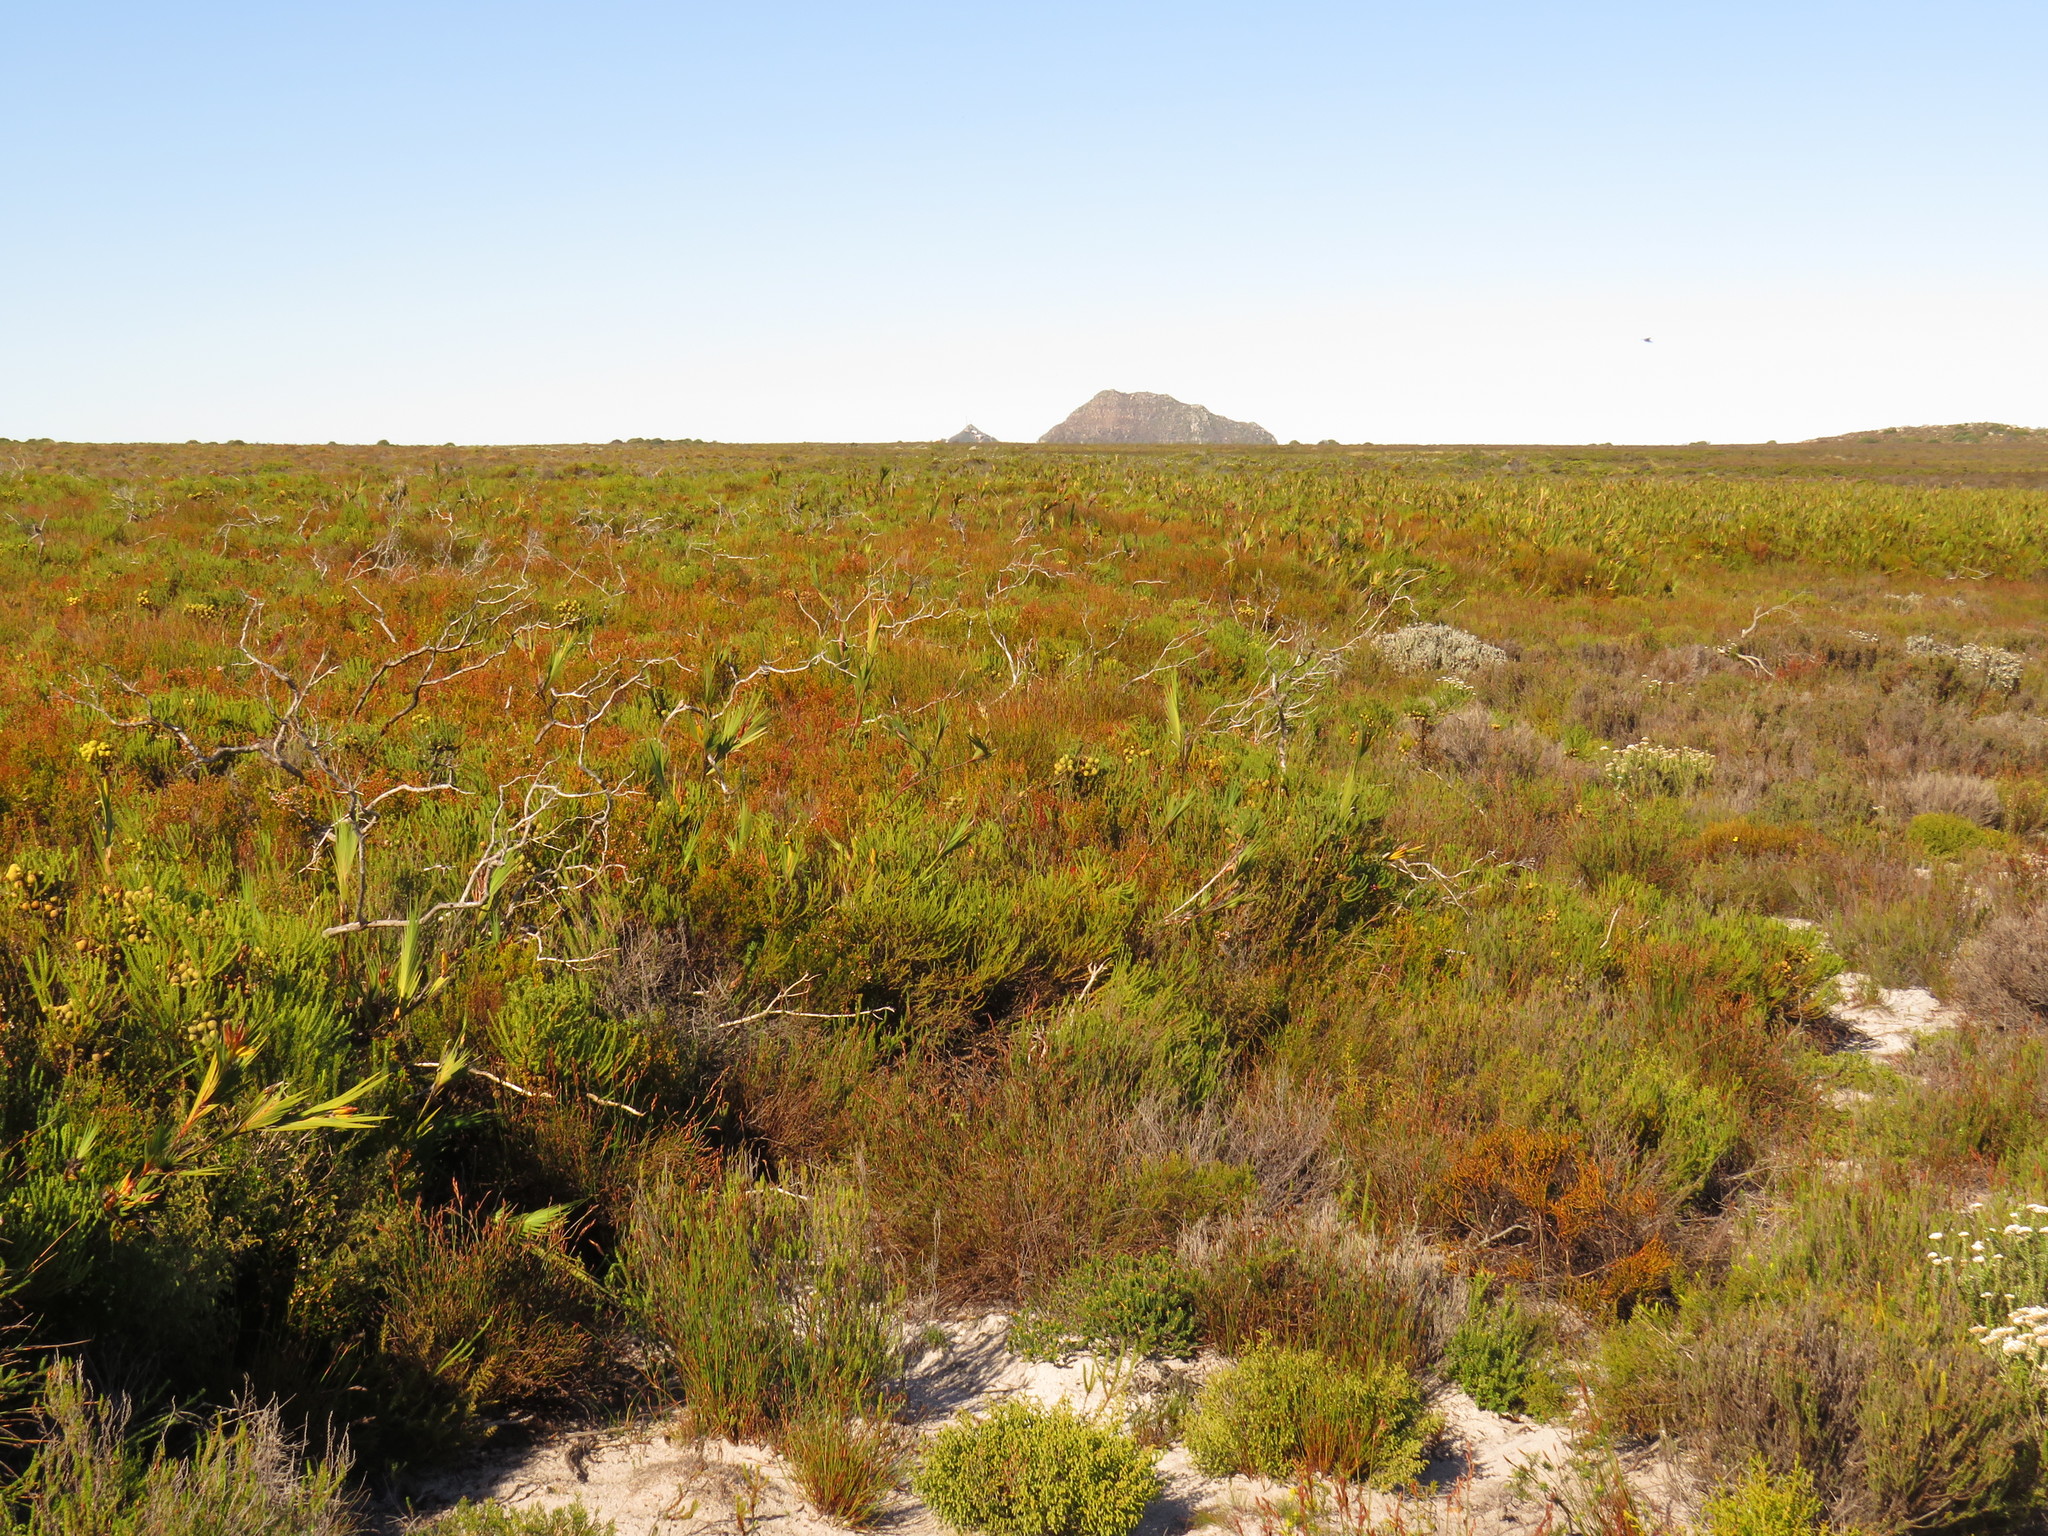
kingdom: Plantae
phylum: Tracheophyta
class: Liliopsida
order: Asparagales
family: Iridaceae
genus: Witsenia
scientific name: Witsenia maura
